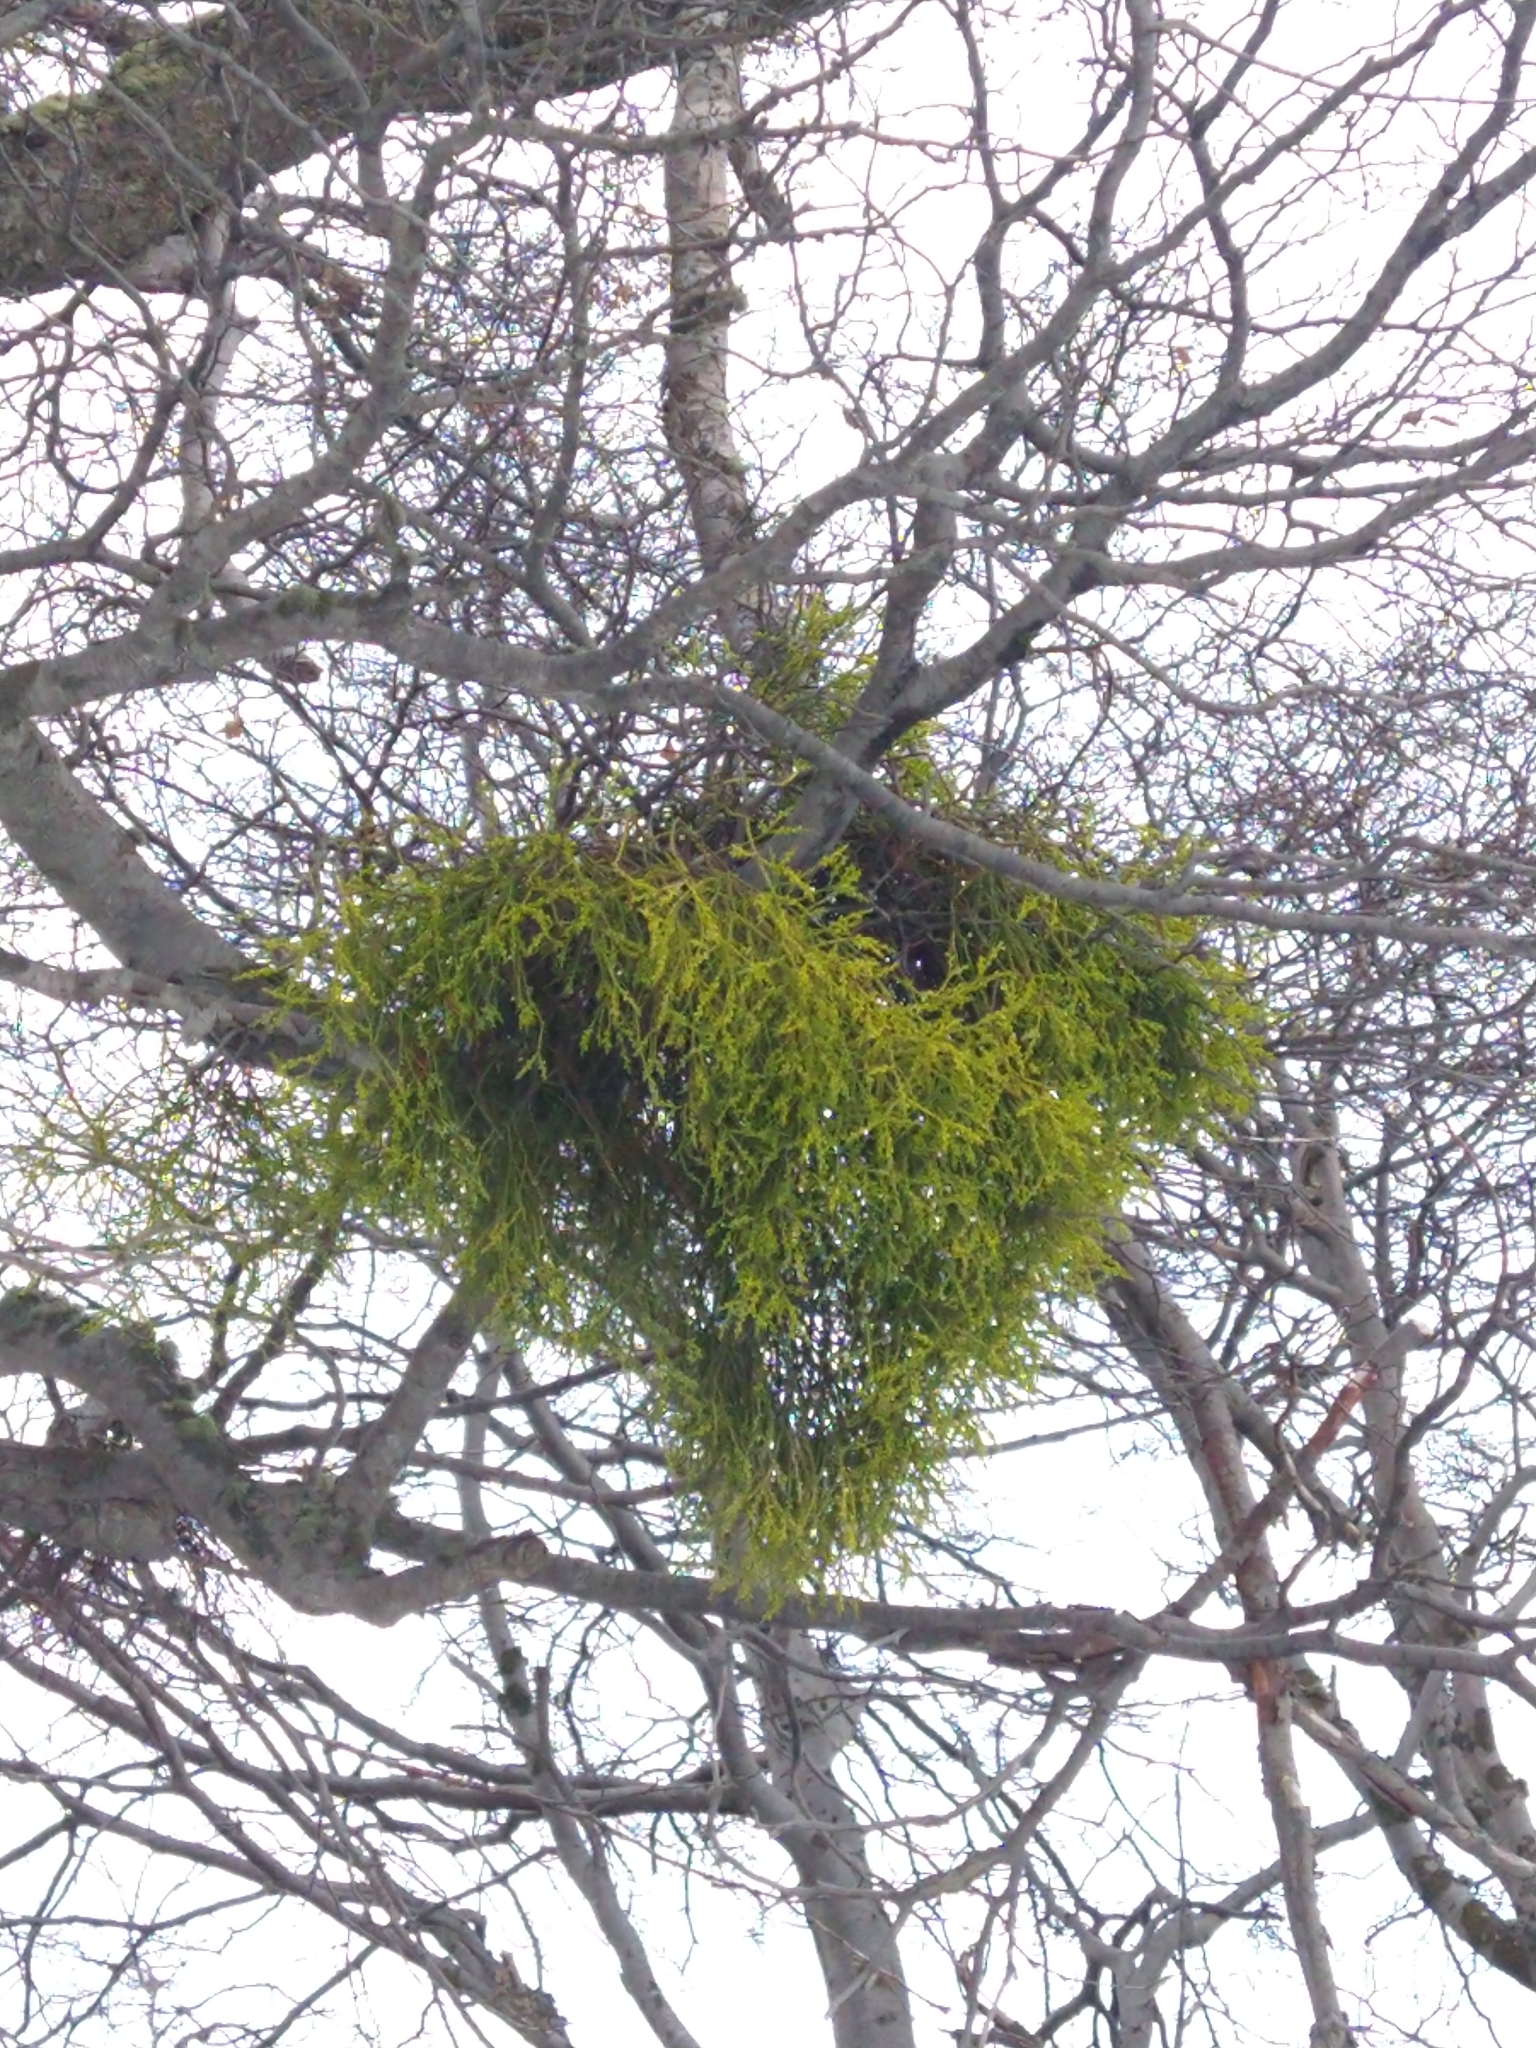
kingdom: Plantae
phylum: Tracheophyta
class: Magnoliopsida
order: Santalales
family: Misodendraceae
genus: Misodendrum
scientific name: Misodendrum punctulatum
